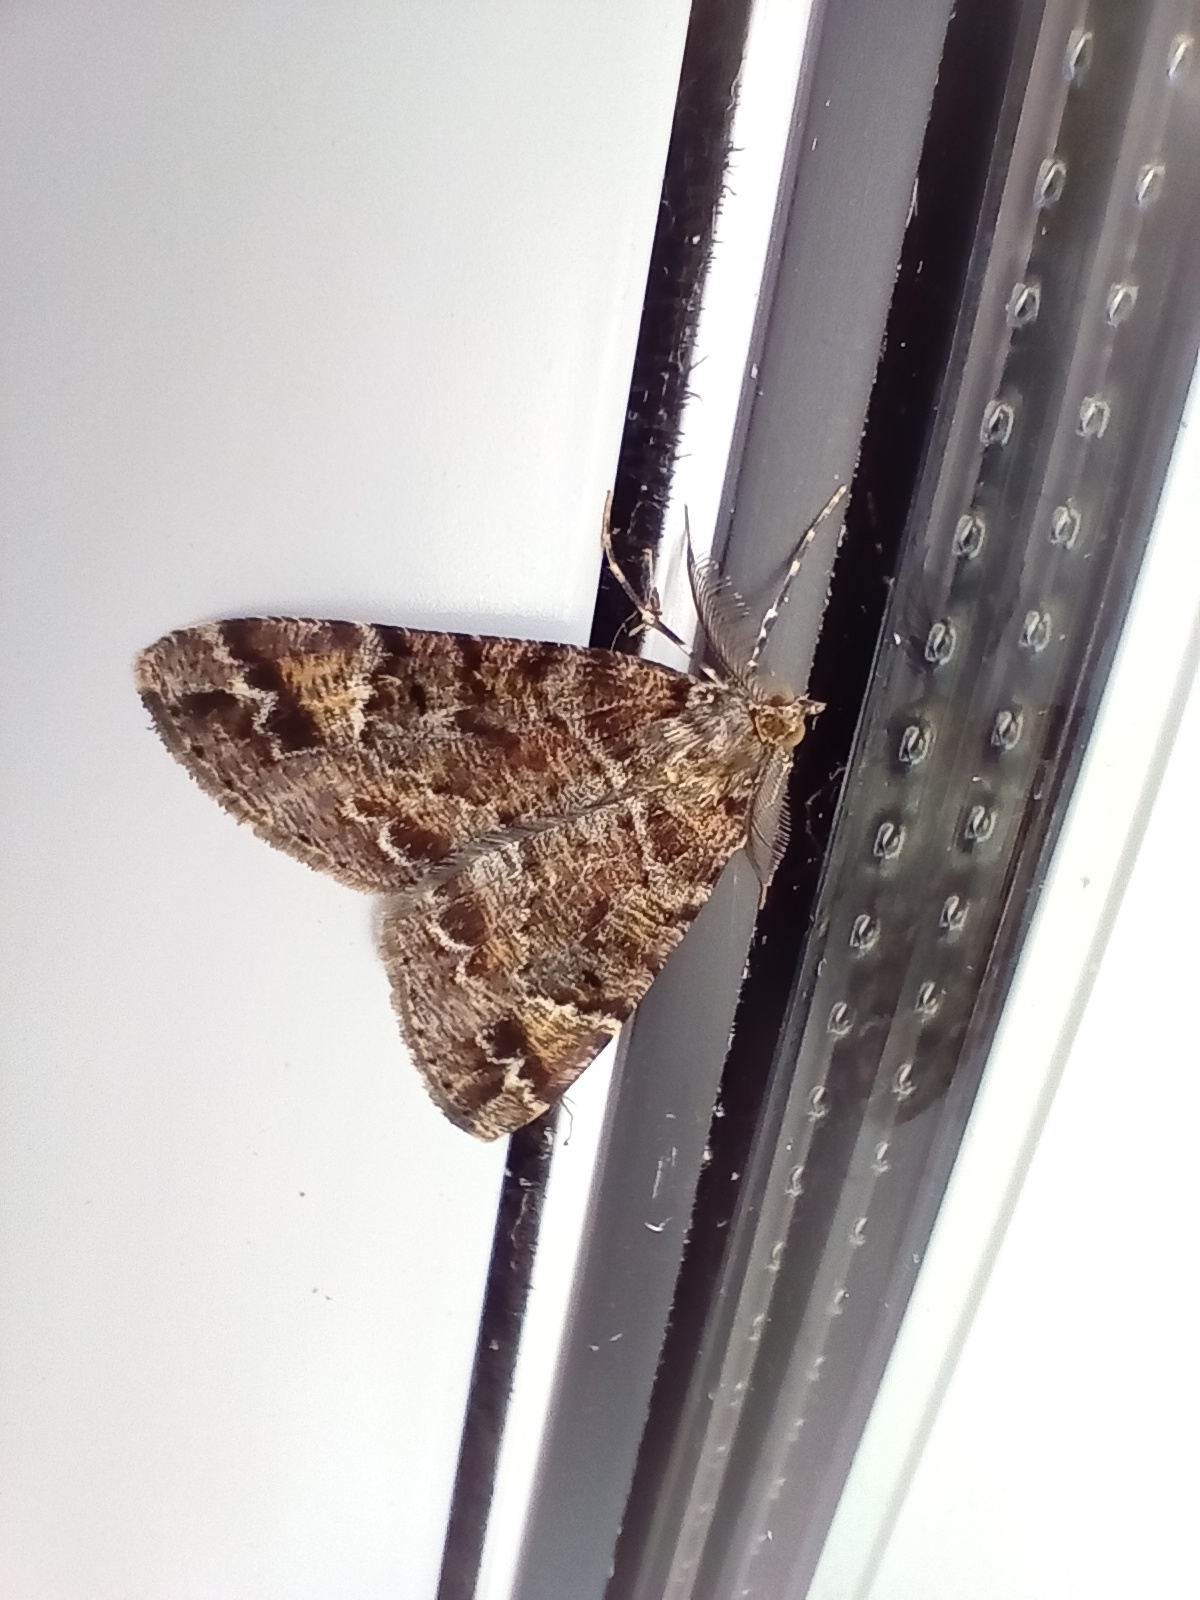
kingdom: Animalia
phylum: Arthropoda
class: Insecta
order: Lepidoptera
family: Geometridae
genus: Pseudocoremia
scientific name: Pseudocoremia productata
